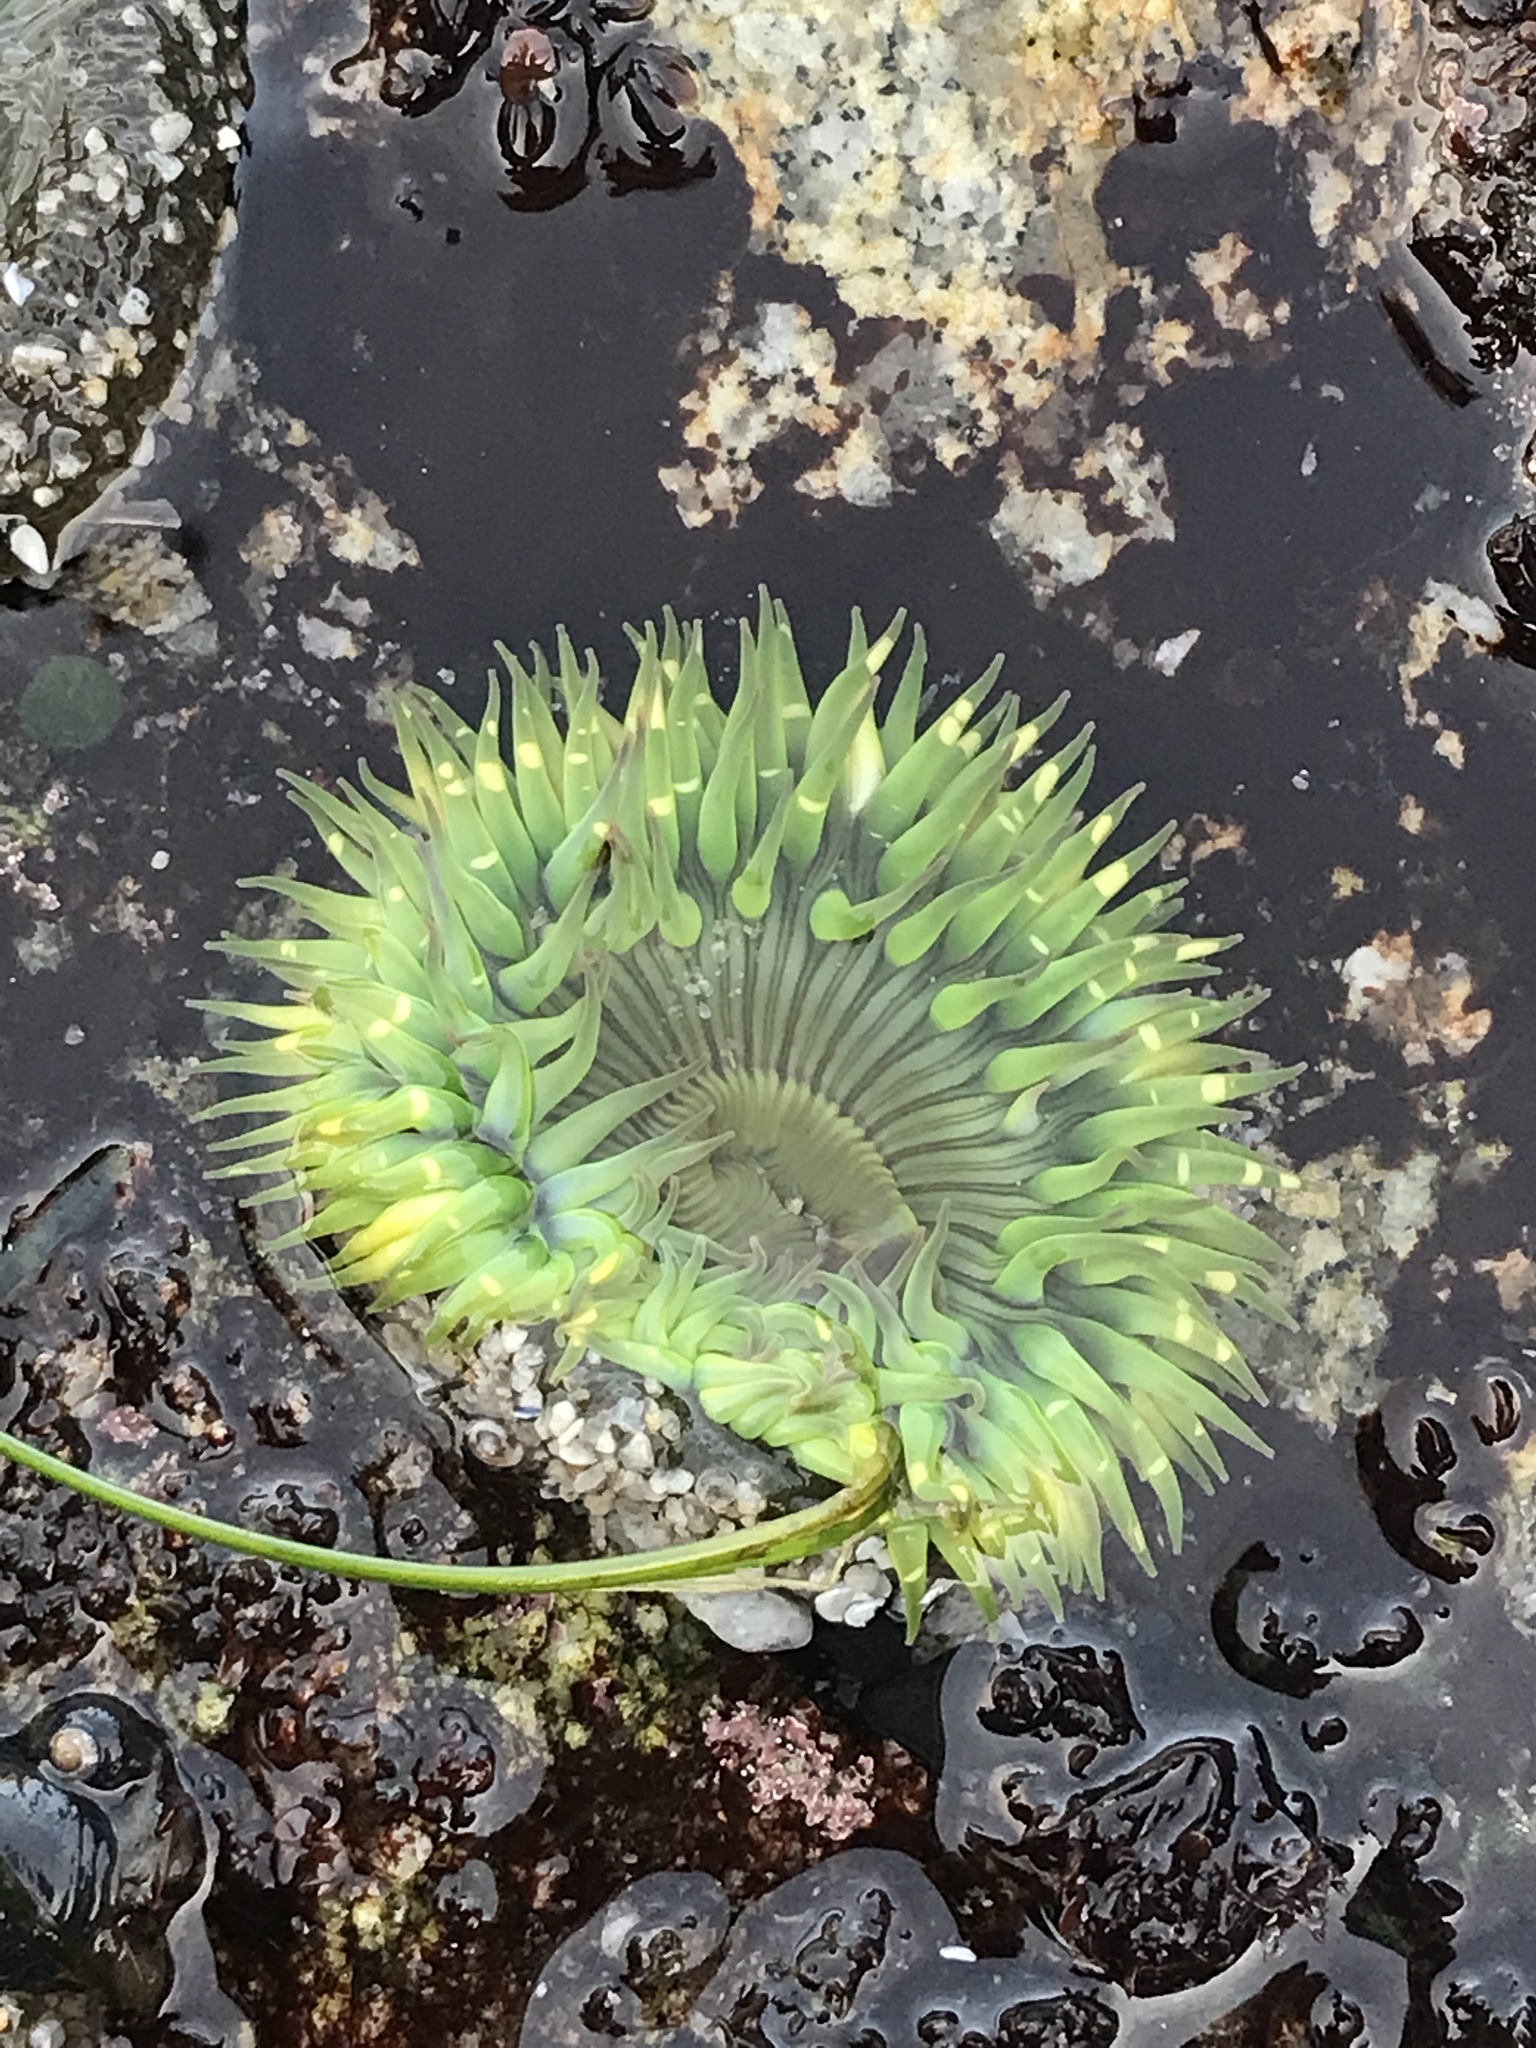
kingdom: Animalia
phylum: Cnidaria
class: Anthozoa
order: Actiniaria
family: Actiniidae
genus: Anthopleura
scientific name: Anthopleura sola
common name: Sun anemone
